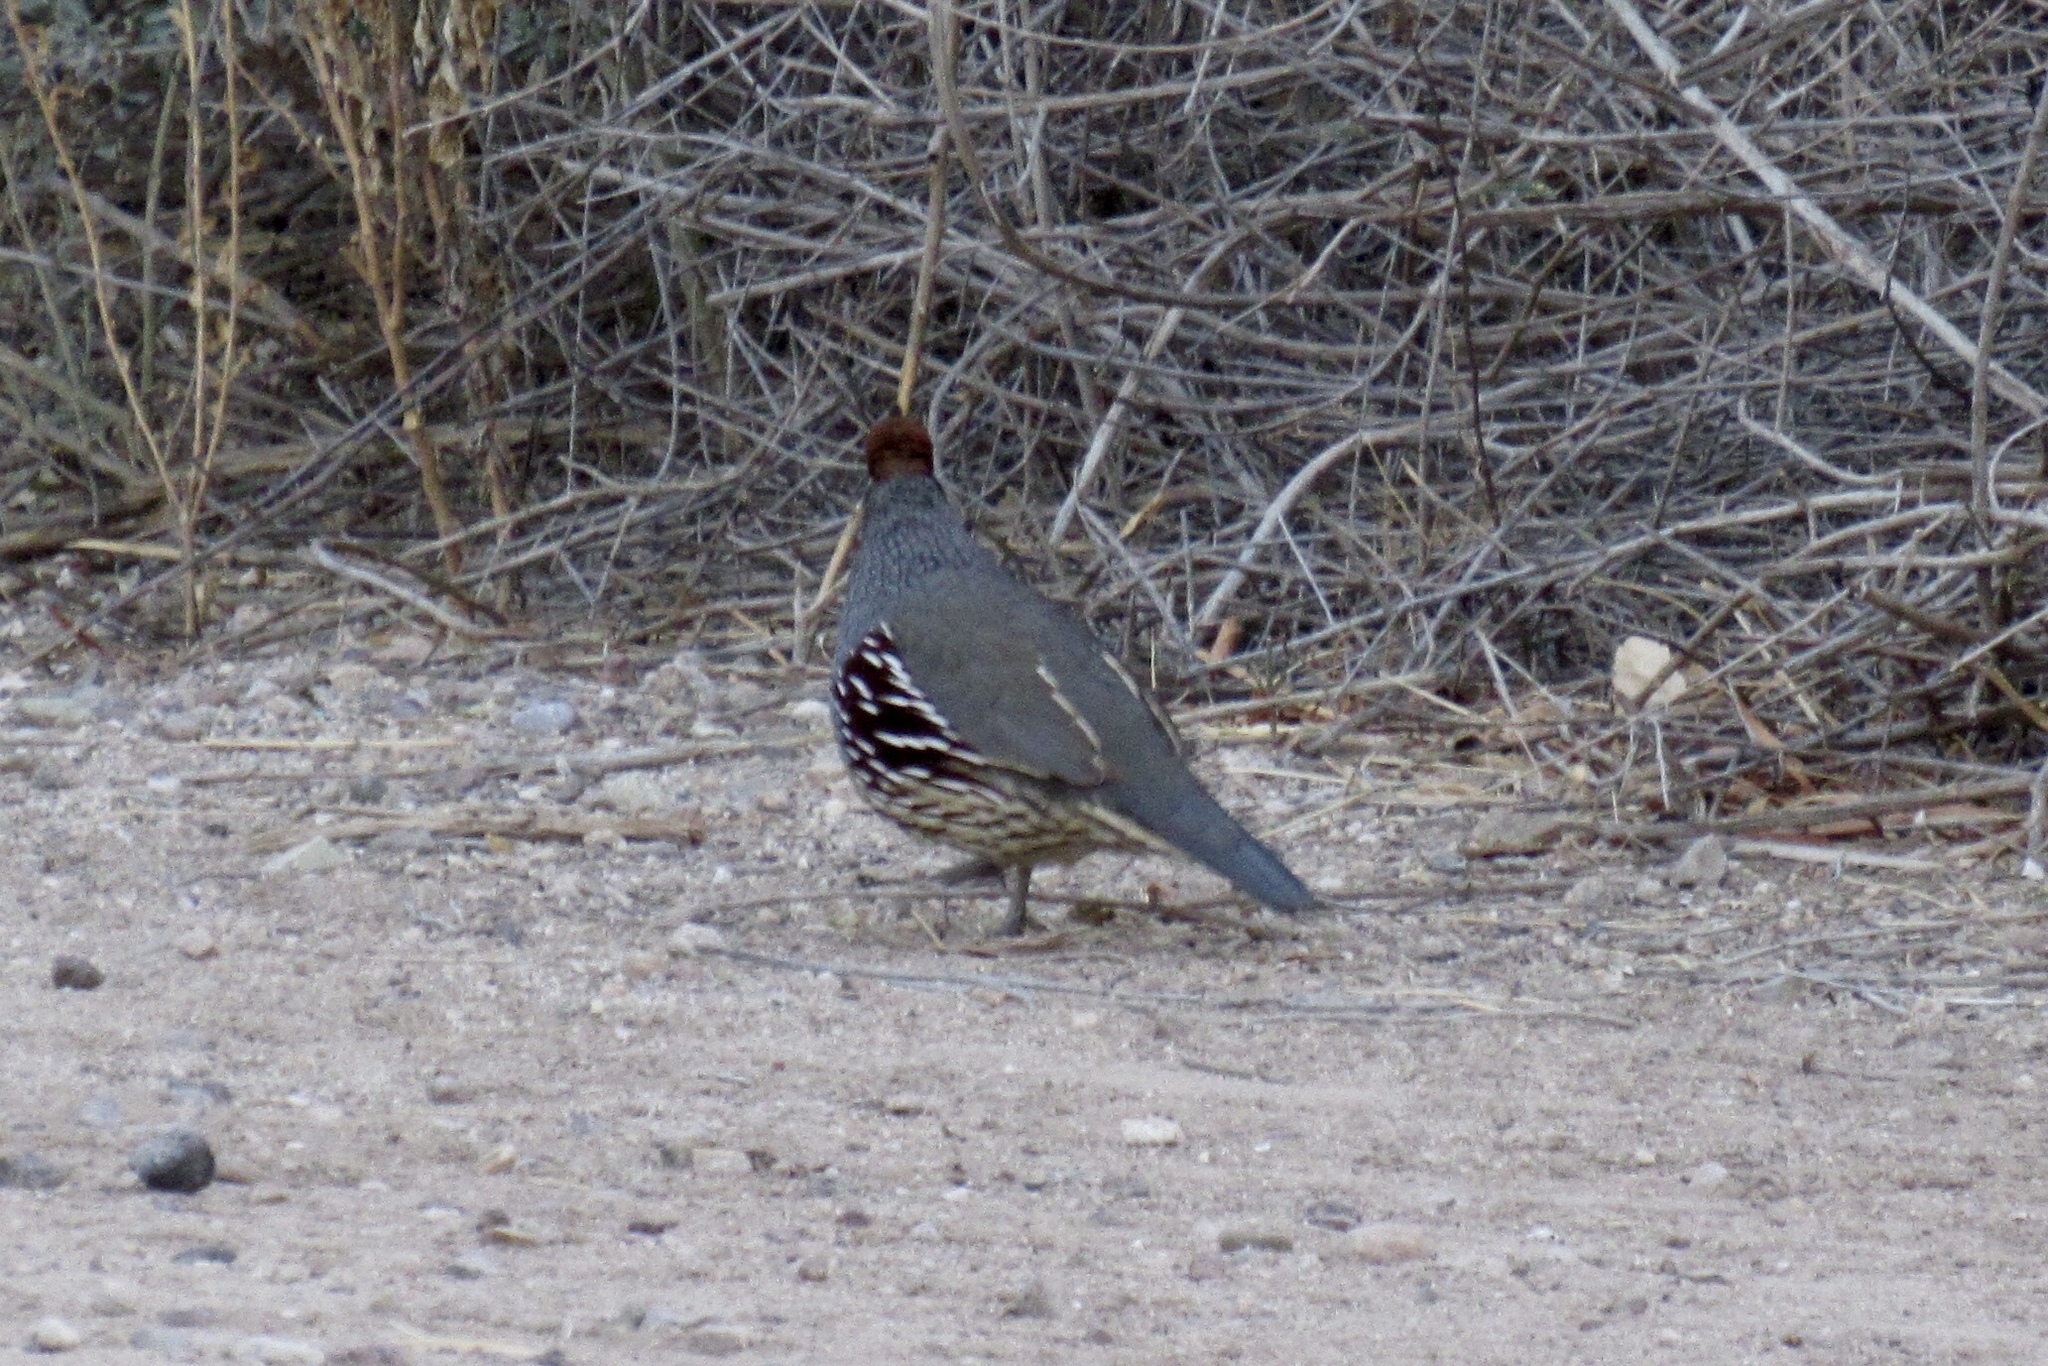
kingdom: Animalia
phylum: Chordata
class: Aves
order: Galliformes
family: Odontophoridae
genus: Callipepla
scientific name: Callipepla gambelii
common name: Gambel's quail
